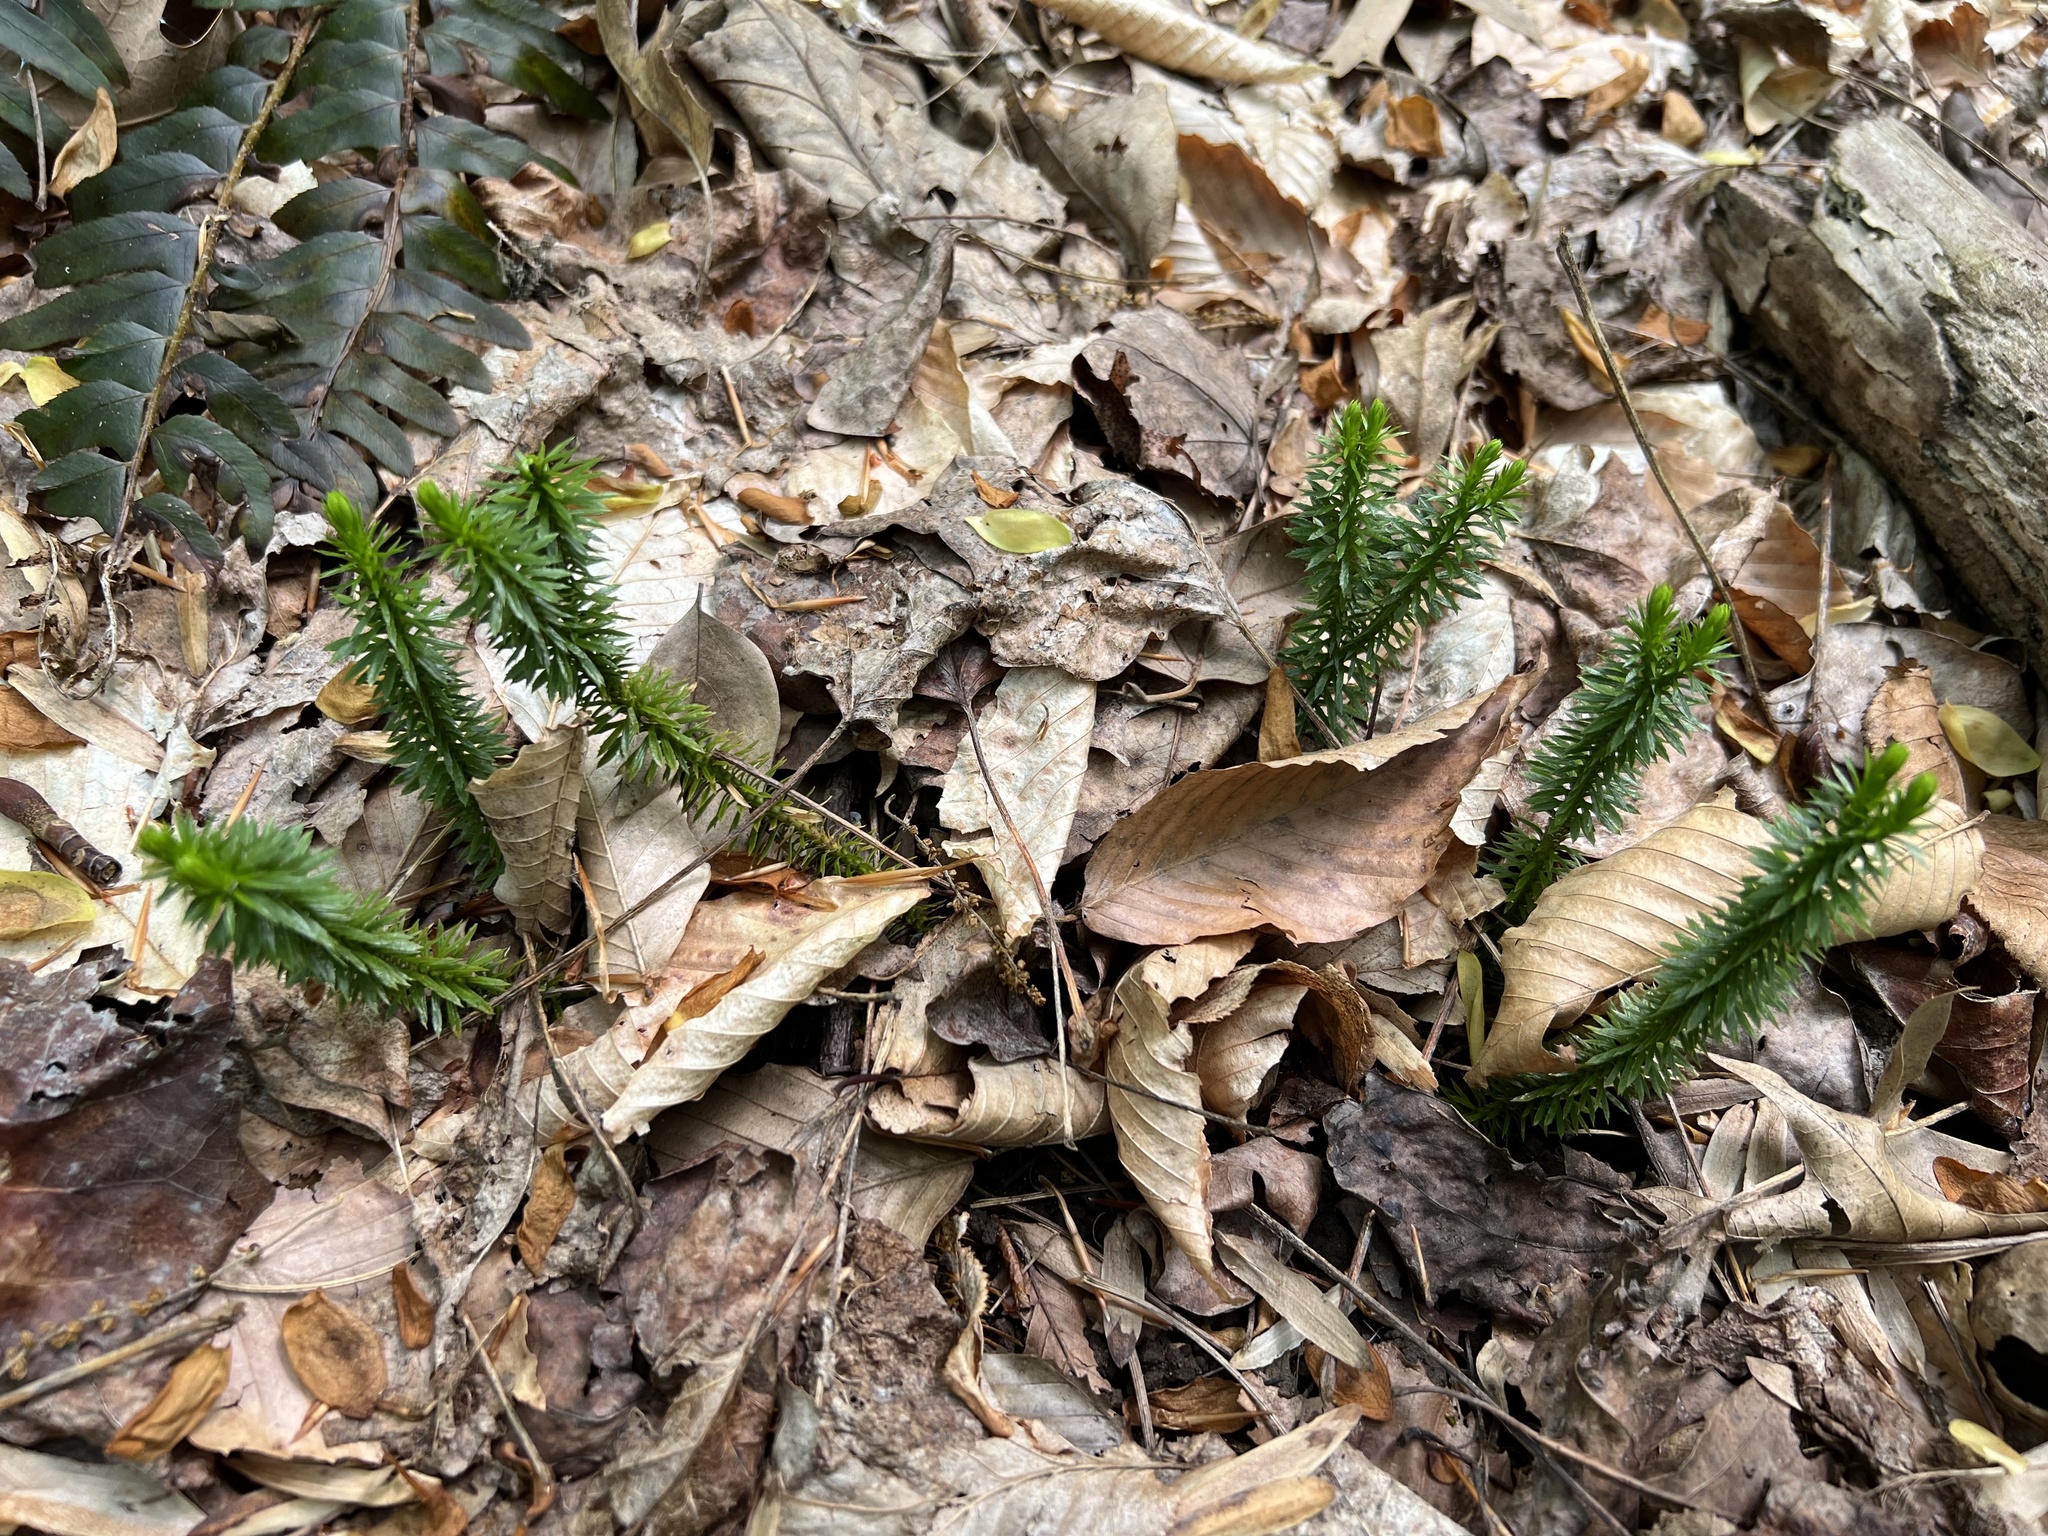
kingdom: Plantae
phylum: Tracheophyta
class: Lycopodiopsida
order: Lycopodiales
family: Lycopodiaceae
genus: Huperzia
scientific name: Huperzia lucidula
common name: Shining clubmoss
